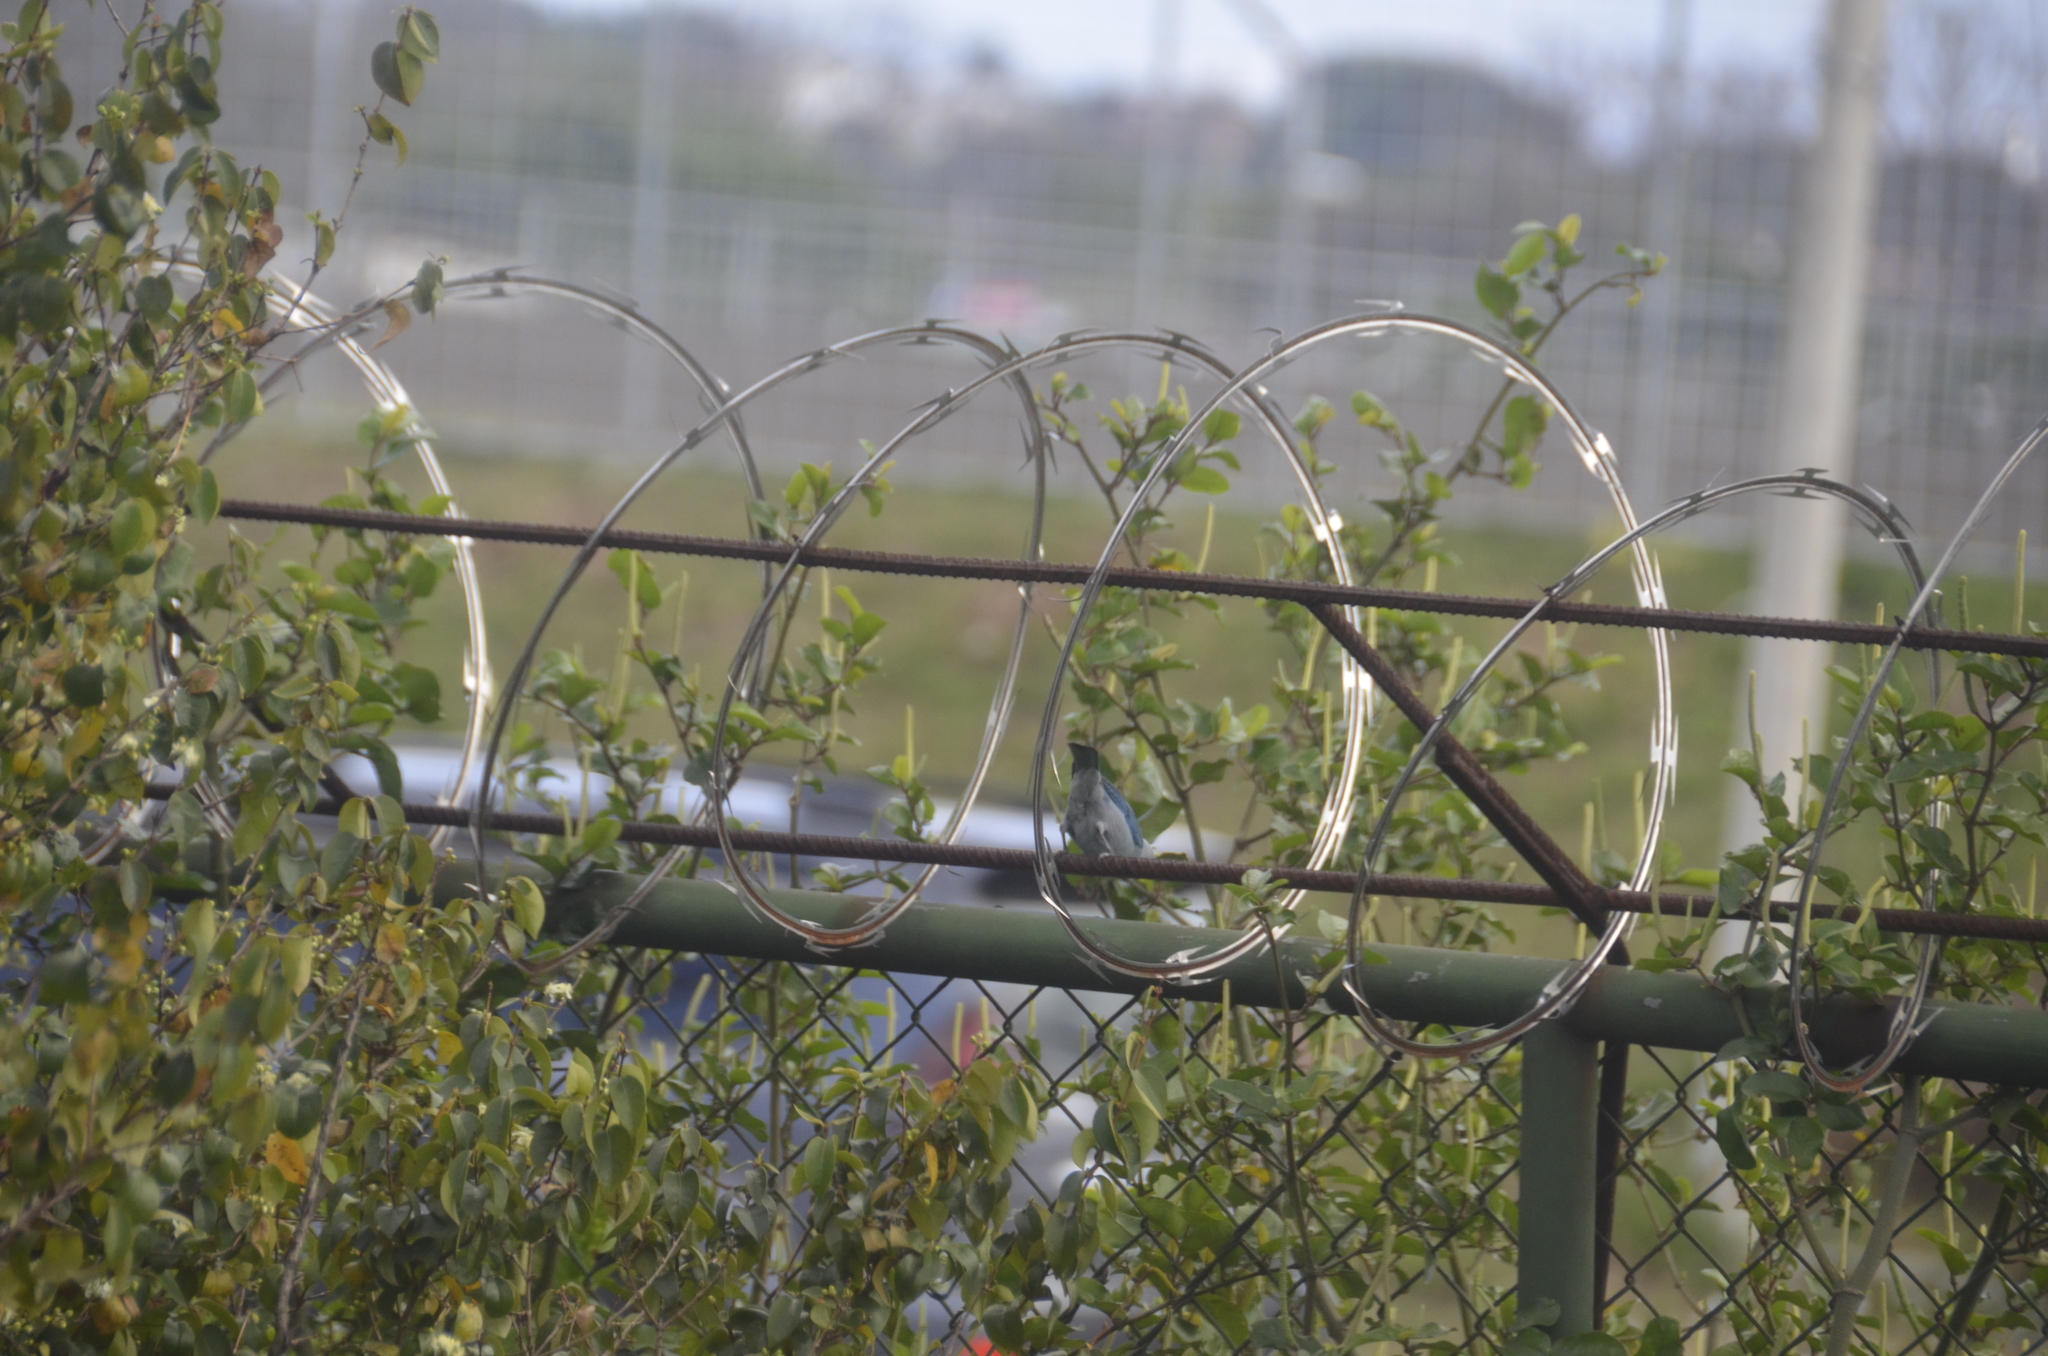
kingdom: Animalia
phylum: Chordata
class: Aves
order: Passeriformes
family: Thraupidae
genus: Thraupis
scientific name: Thraupis episcopus
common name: Blue-grey tanager
